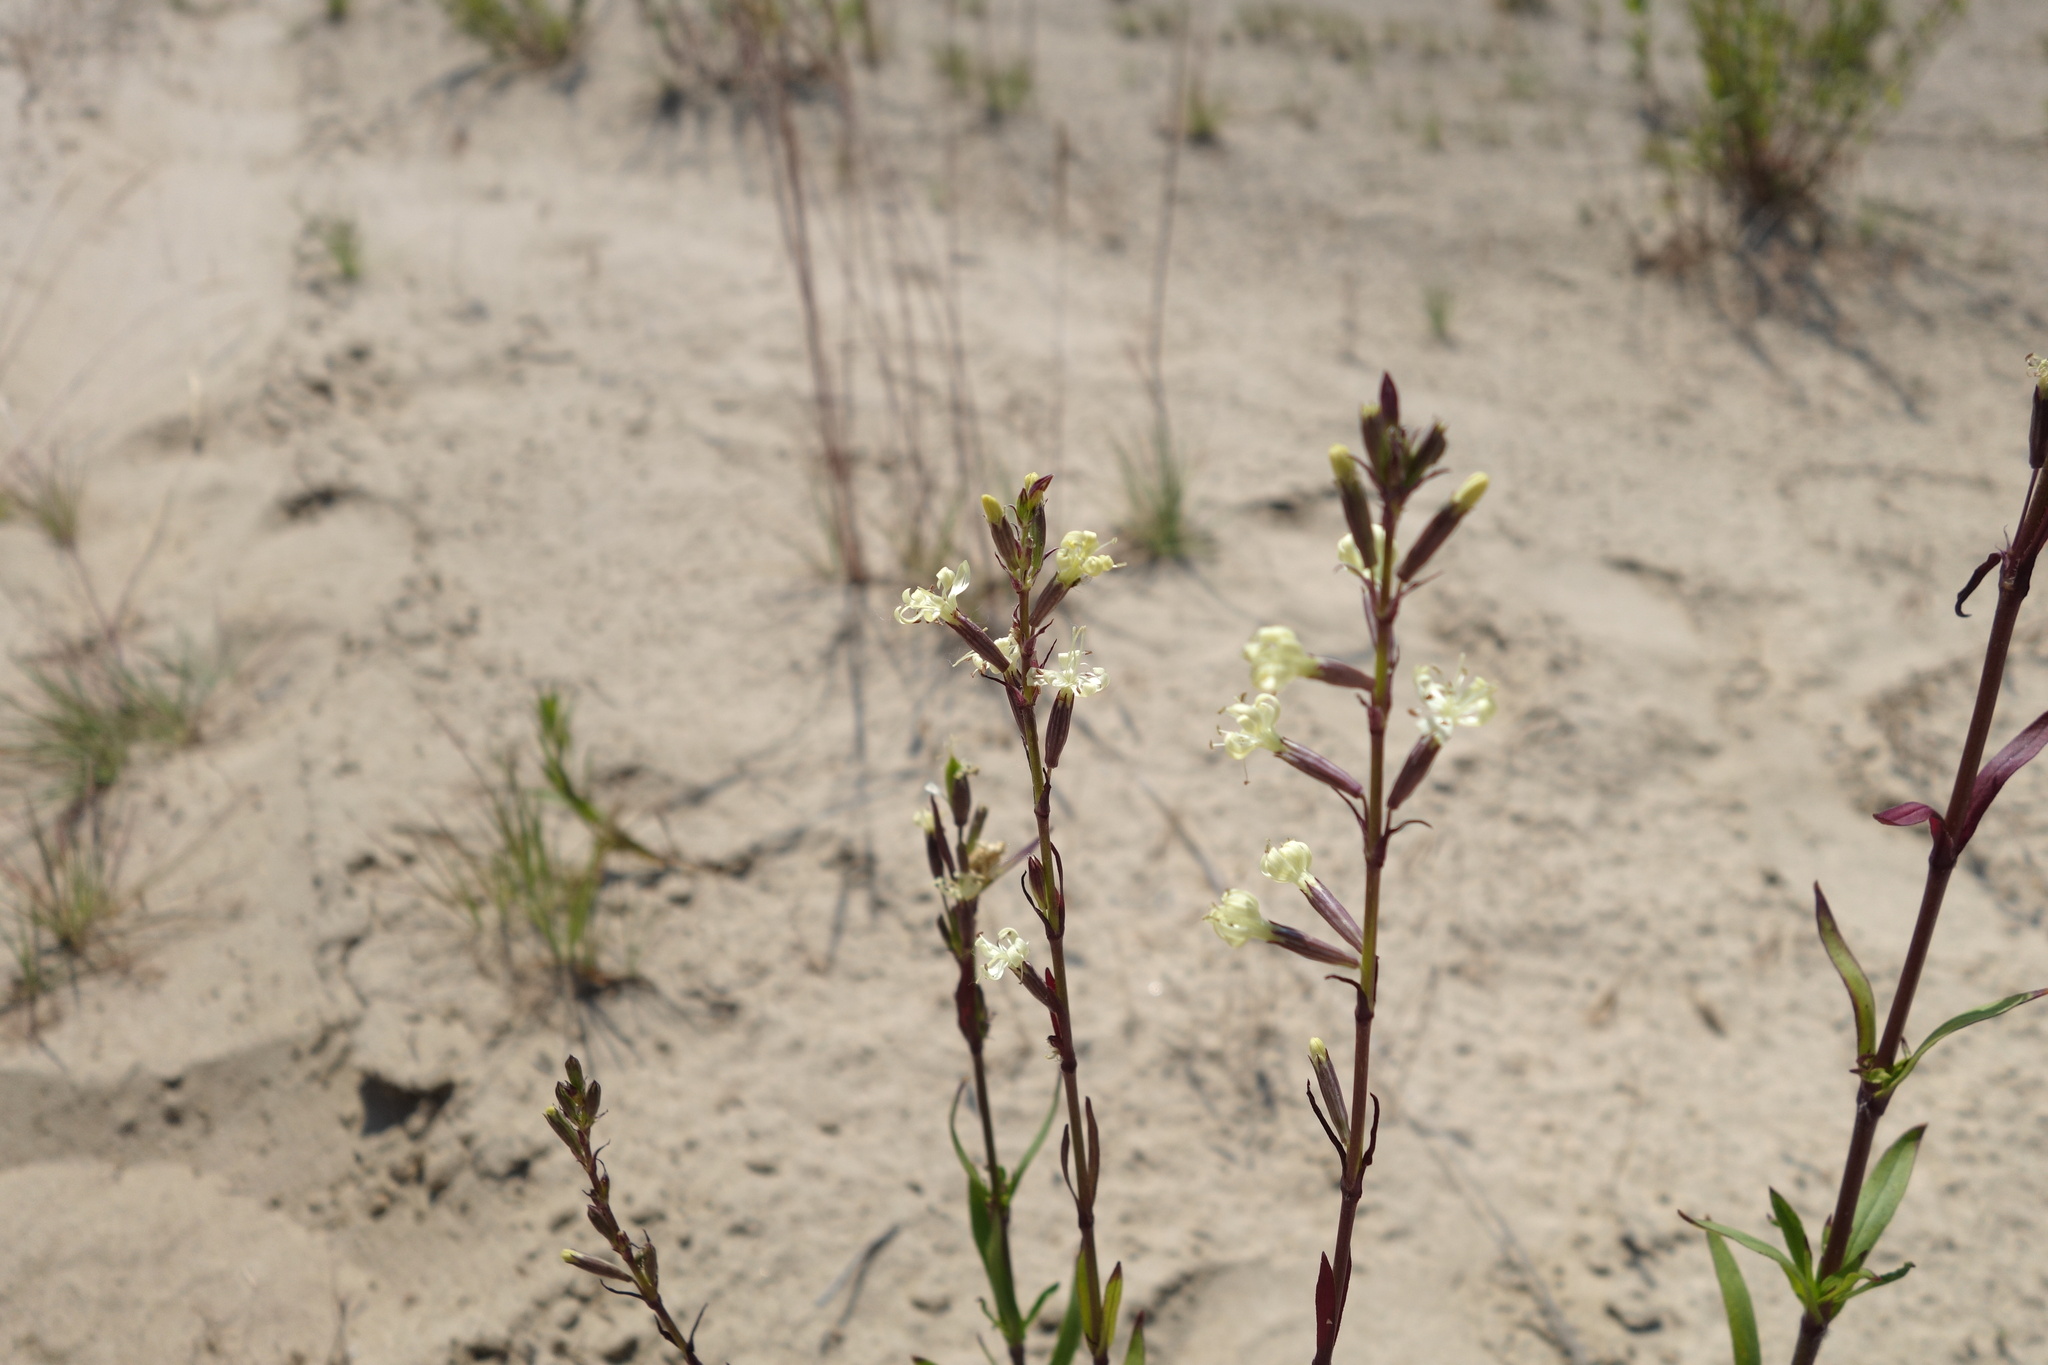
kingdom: Plantae
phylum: Tracheophyta
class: Magnoliopsida
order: Caryophyllales
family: Caryophyllaceae
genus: Silene
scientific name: Silene tatarica
